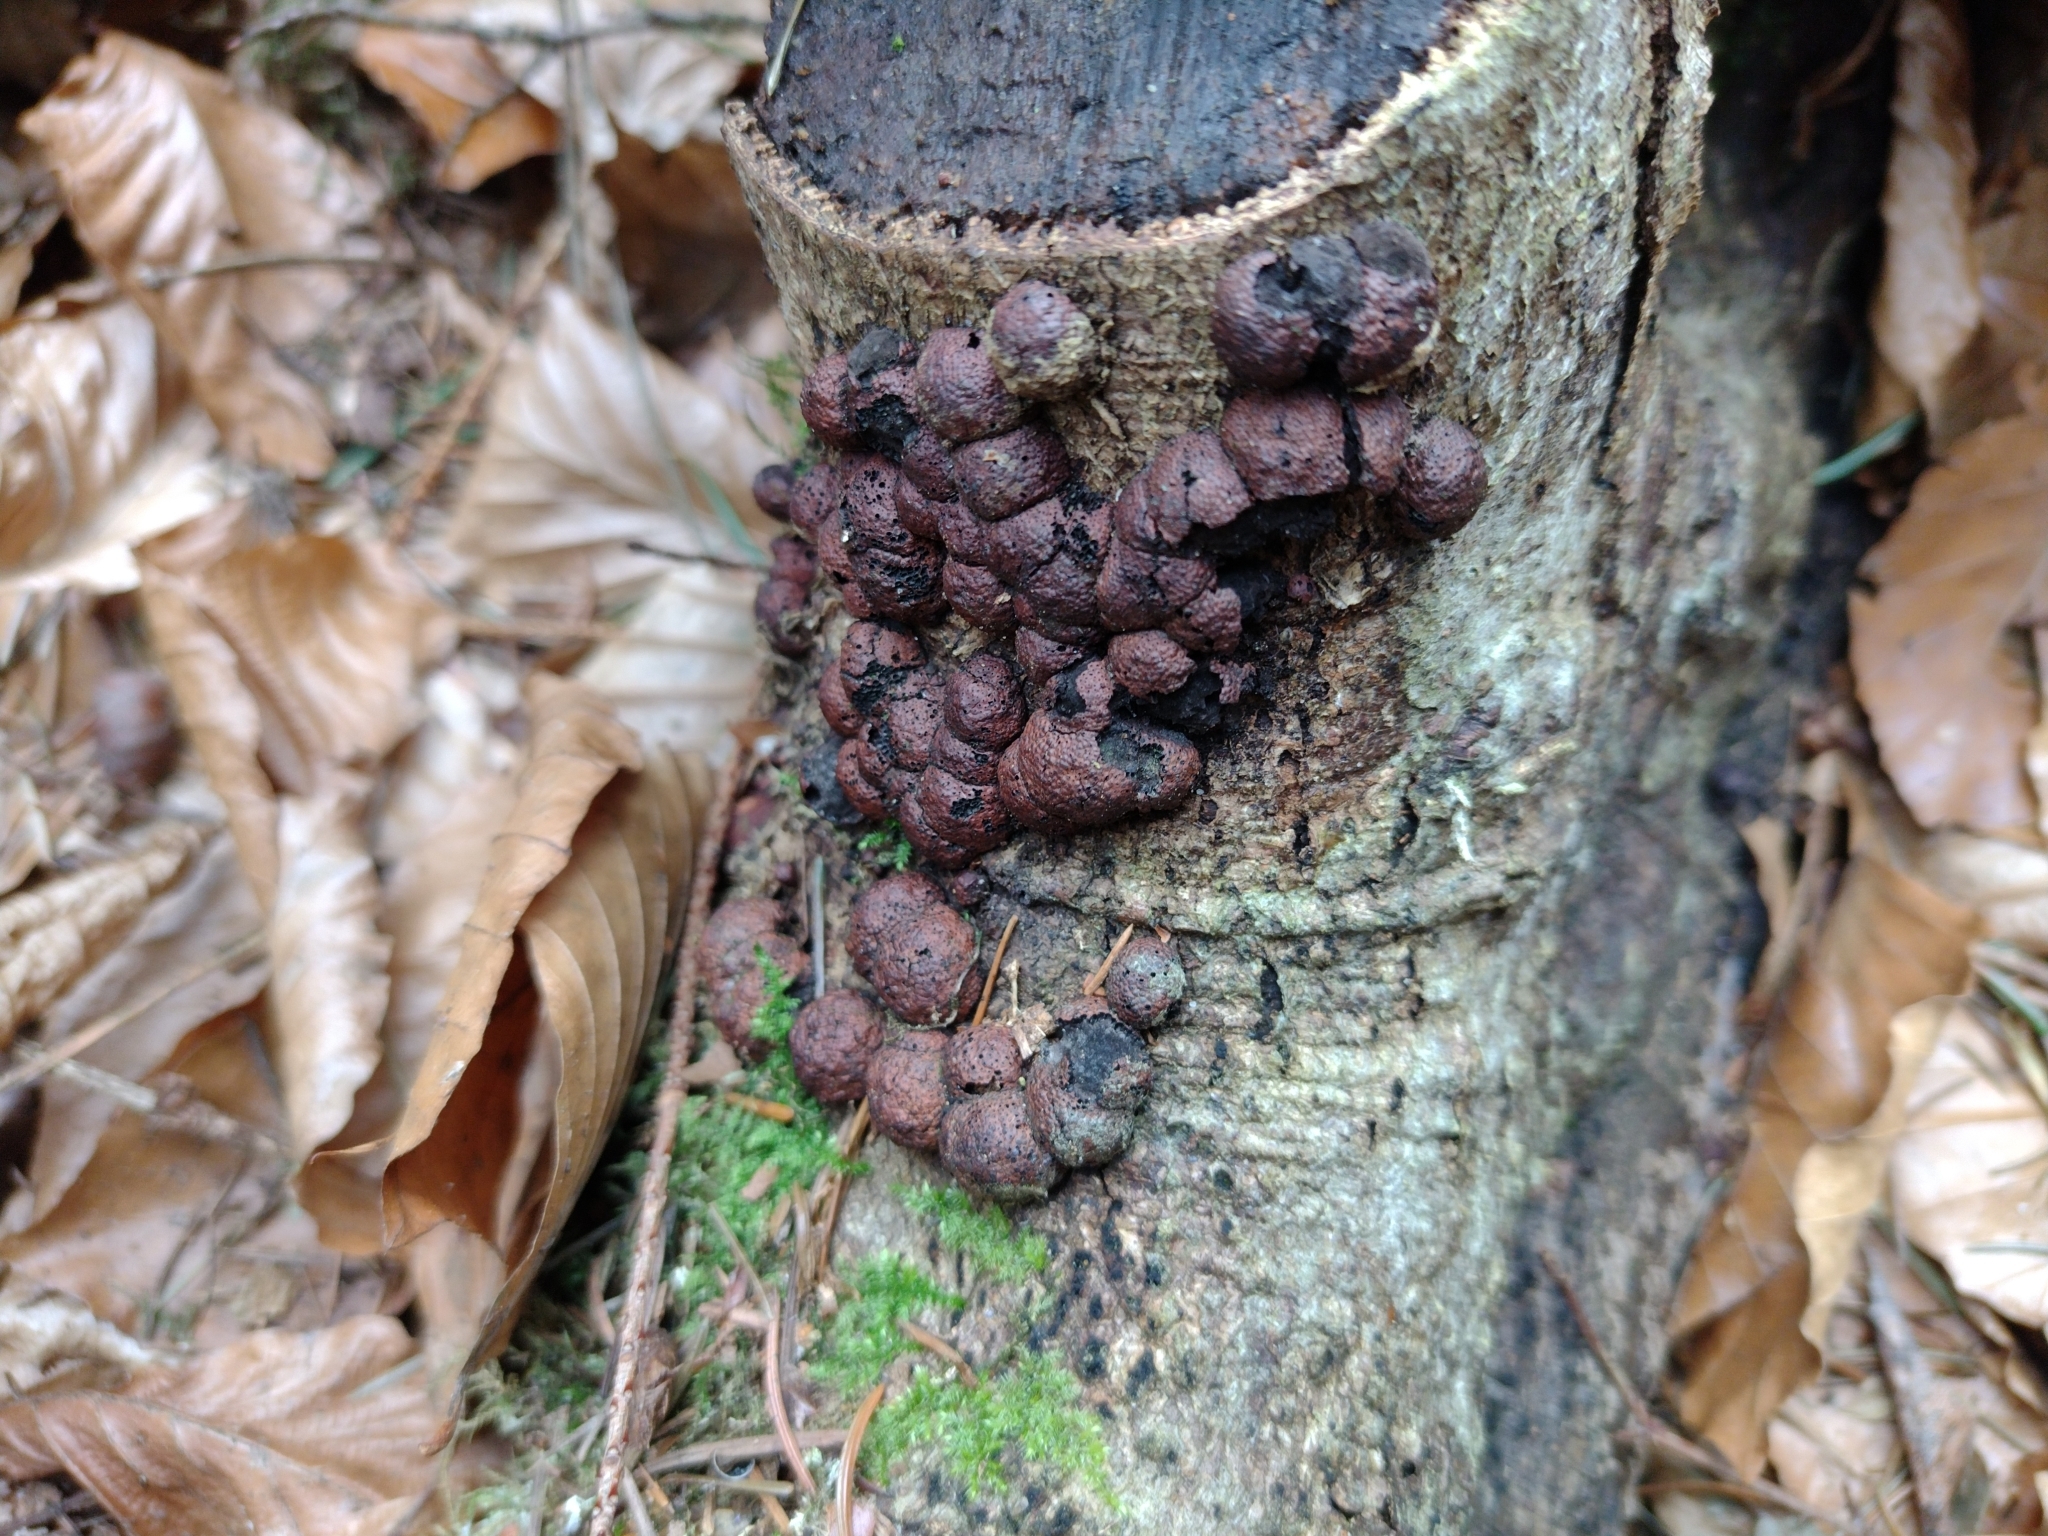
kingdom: Fungi
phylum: Ascomycota
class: Sordariomycetes
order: Xylariales
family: Hypoxylaceae
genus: Hypoxylon
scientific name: Hypoxylon fragiforme
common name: Beech woodwart
